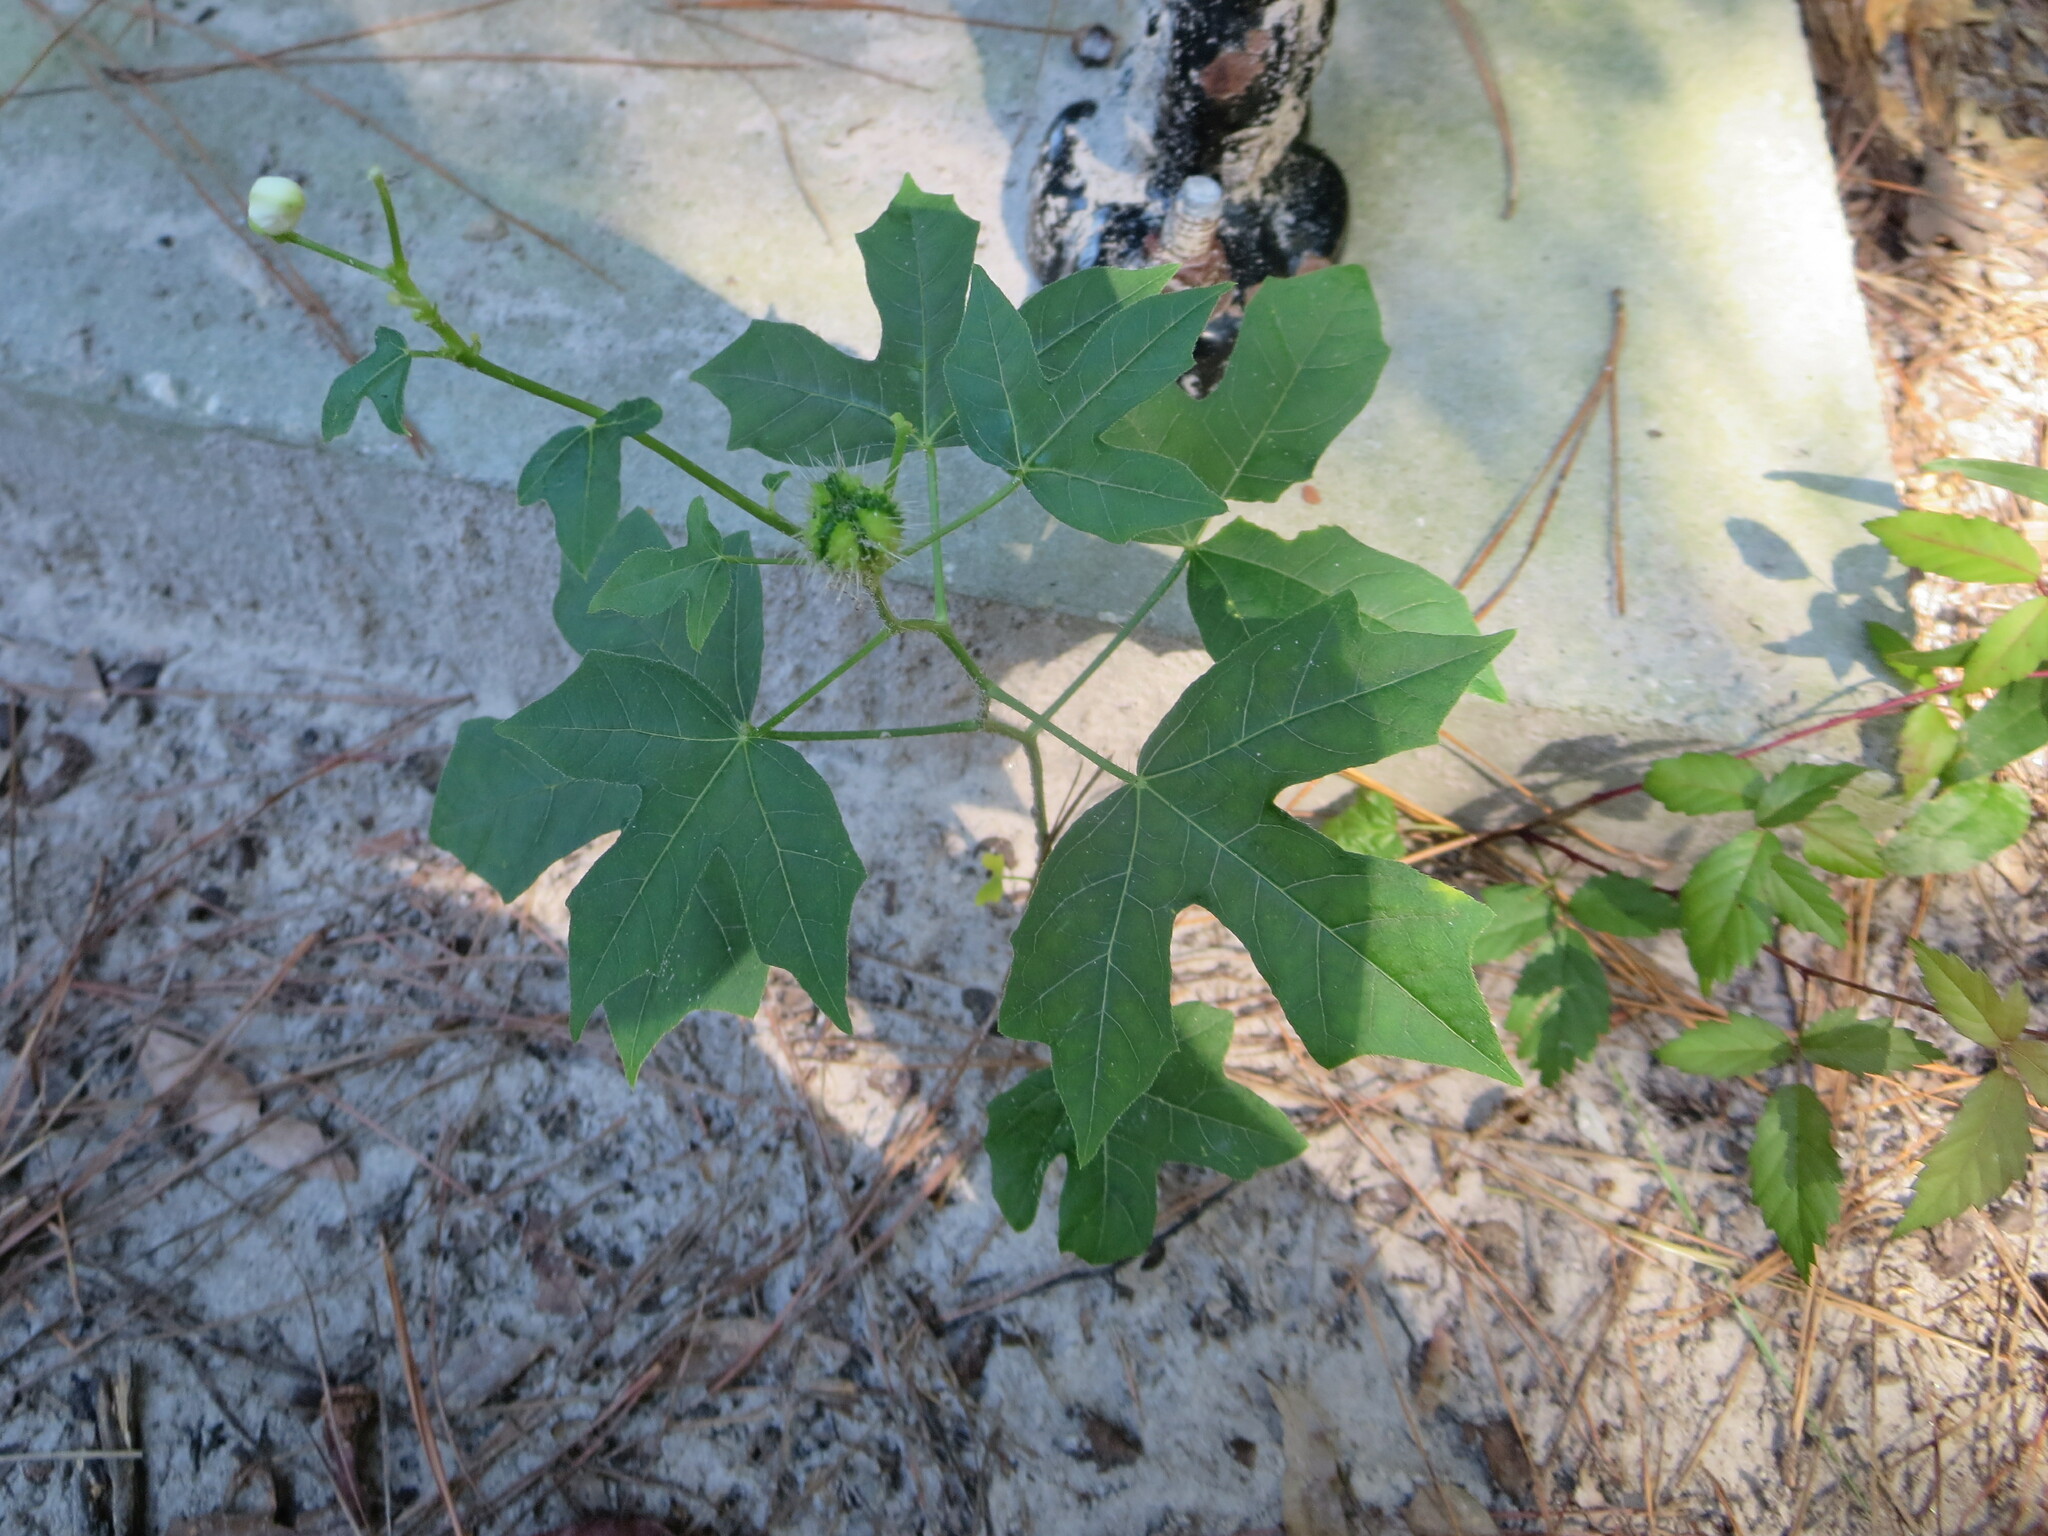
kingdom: Plantae
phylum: Tracheophyta
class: Magnoliopsida
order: Malpighiales
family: Euphorbiaceae
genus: Cnidoscolus
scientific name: Cnidoscolus stimulosus
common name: Bull-nettle
